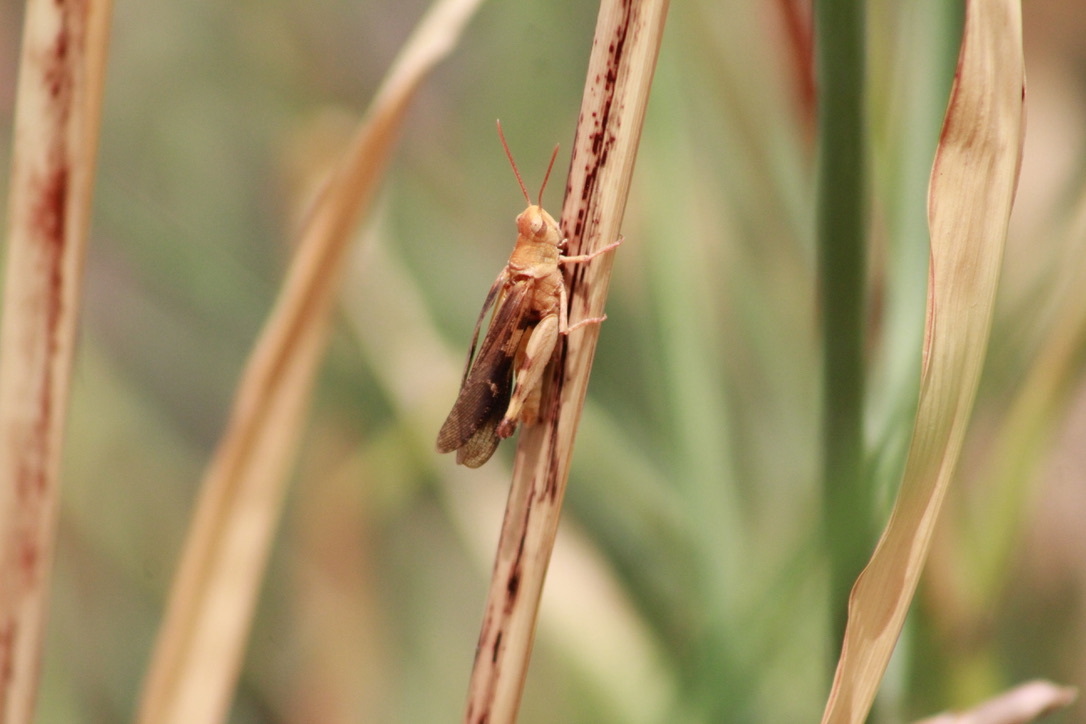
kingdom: Animalia
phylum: Arthropoda
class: Insecta
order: Orthoptera
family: Acrididae
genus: Chortophaga
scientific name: Chortophaga viridifasciata
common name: Green-striped grasshopper
